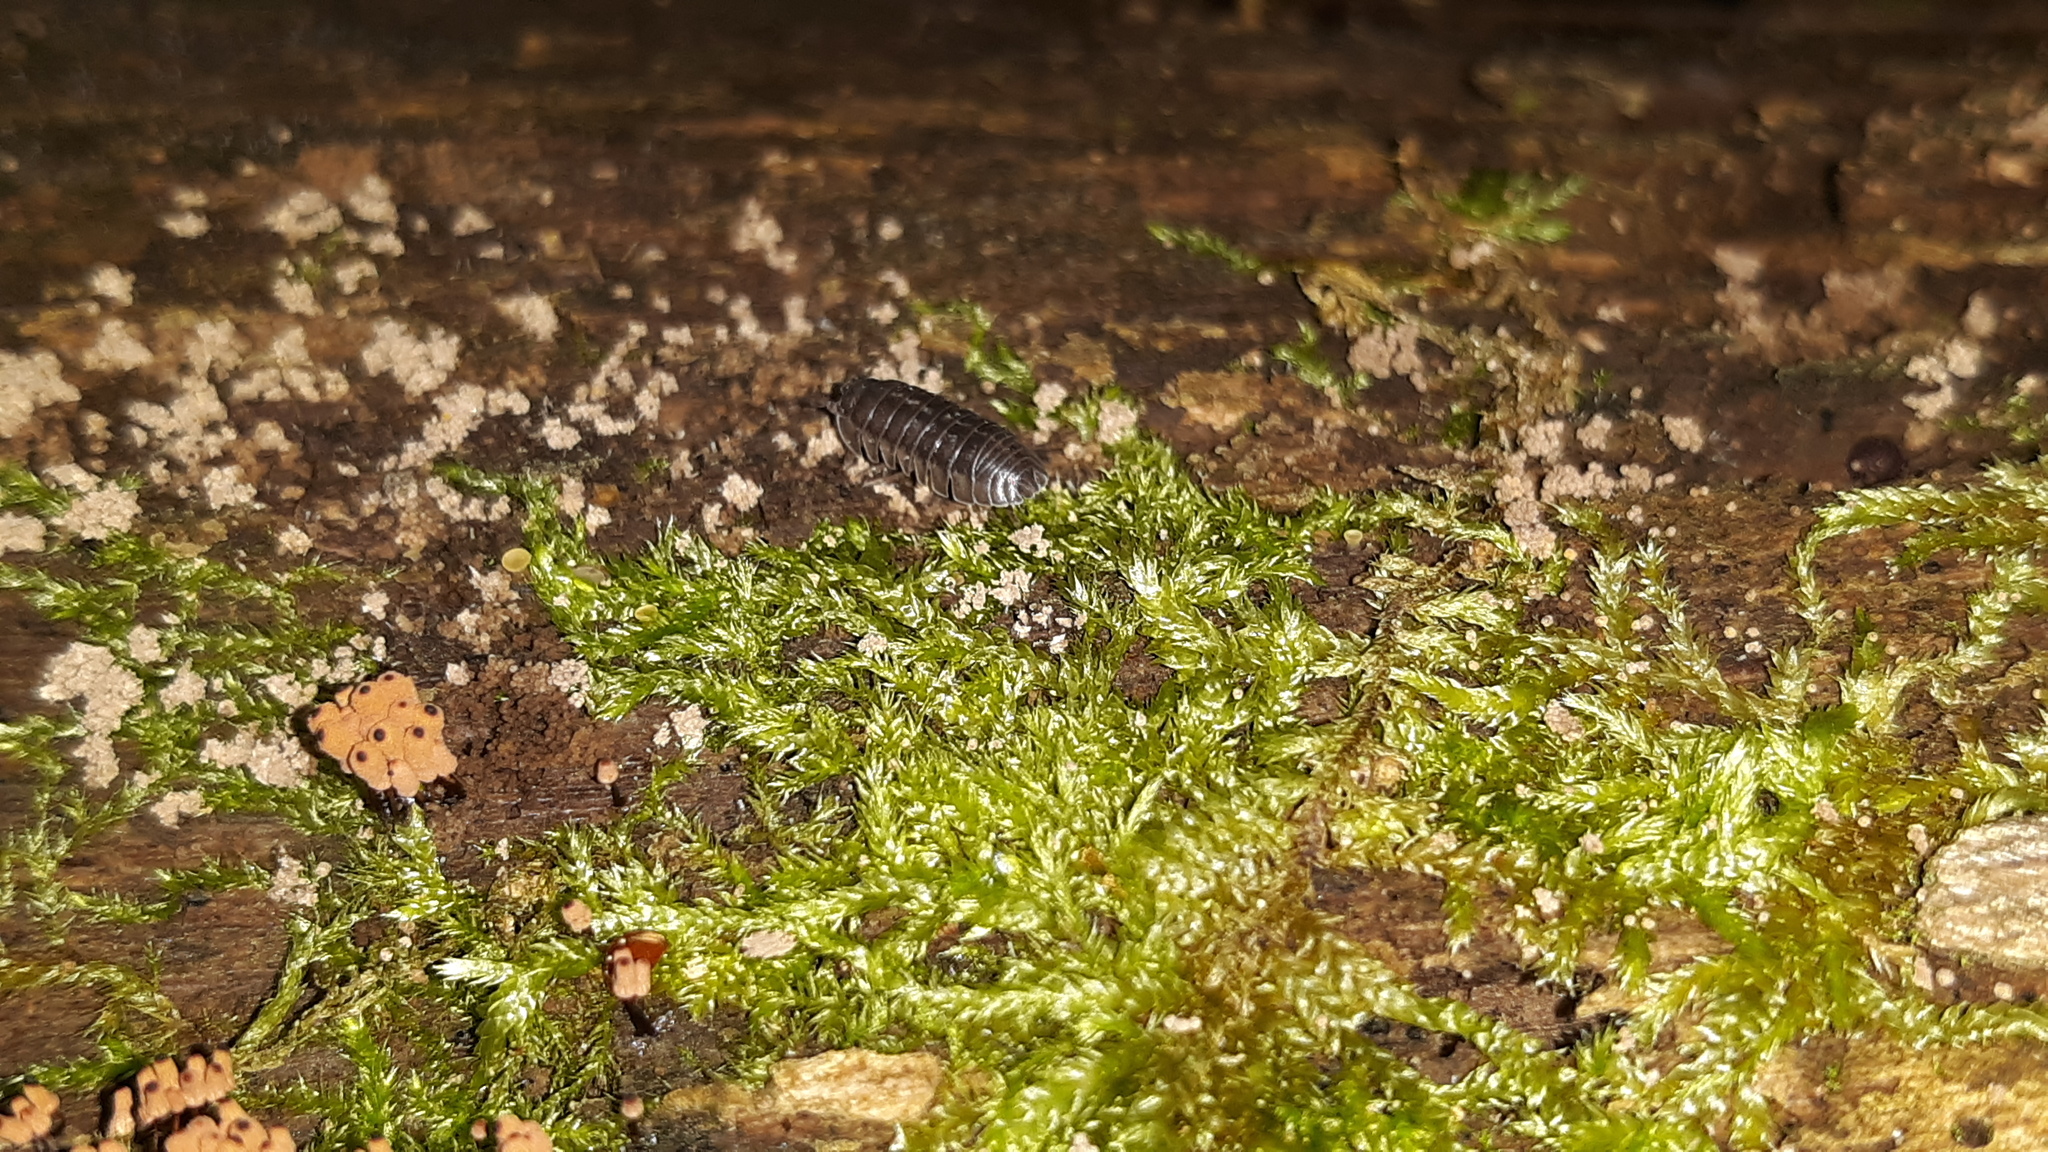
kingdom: Animalia
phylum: Arthropoda
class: Malacostraca
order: Isopoda
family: Armadillidiidae
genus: Armadillidium
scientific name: Armadillidium nasatum
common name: Isopod
